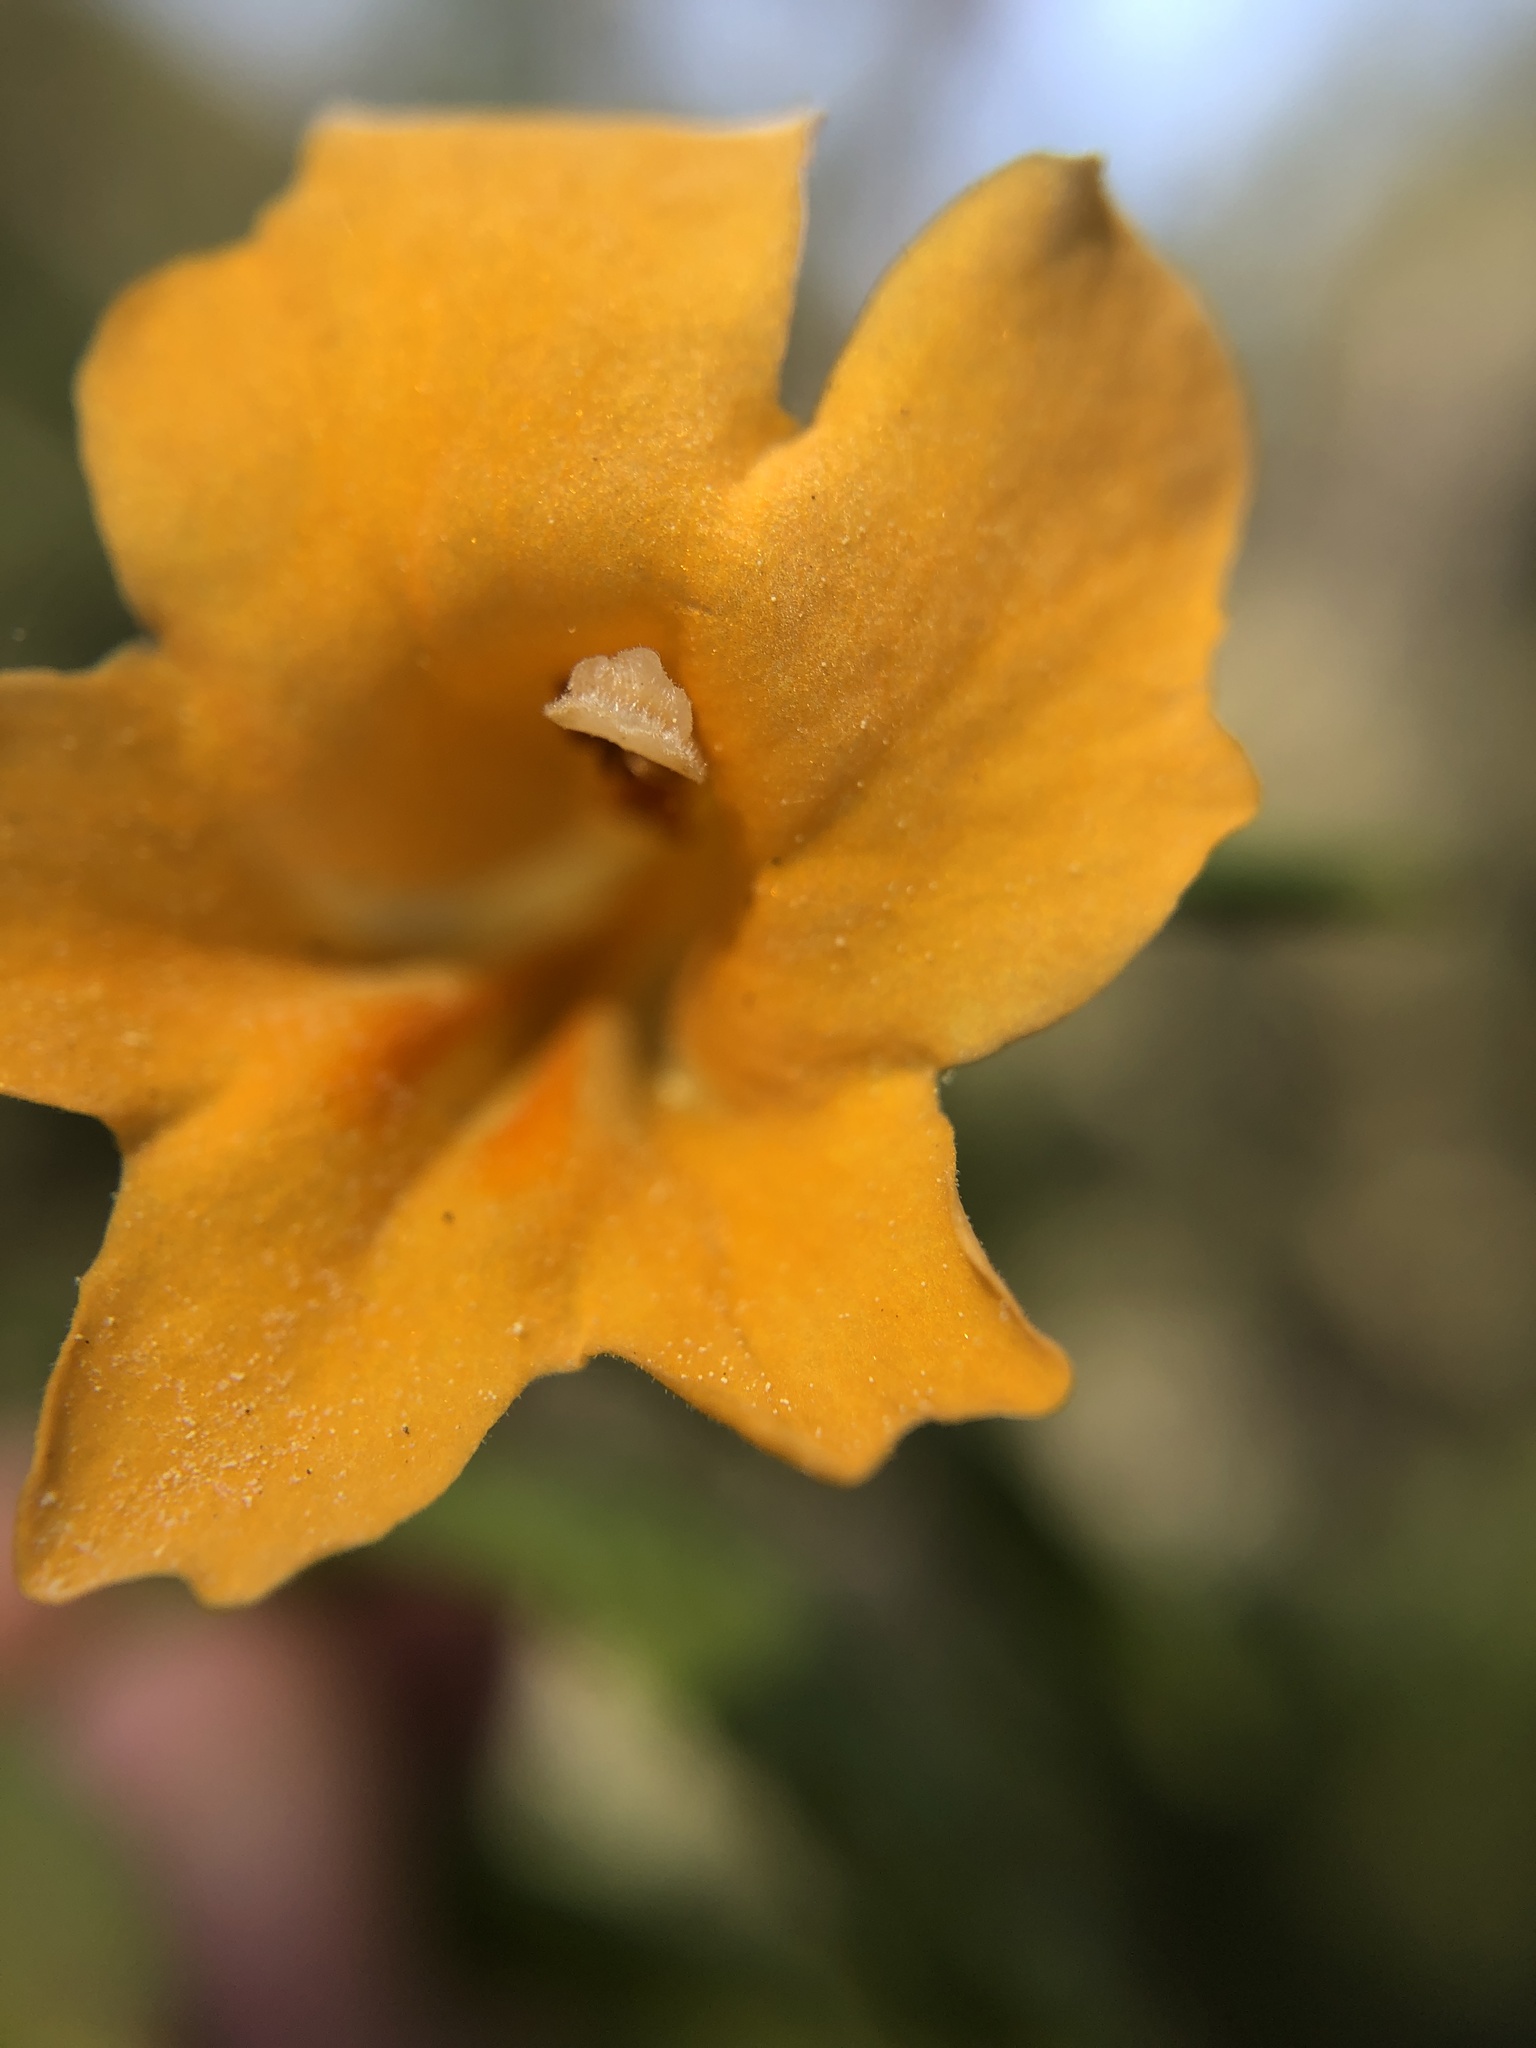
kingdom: Plantae
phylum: Tracheophyta
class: Magnoliopsida
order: Lamiales
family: Phrymaceae
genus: Diplacus
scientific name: Diplacus aurantiacus
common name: Bush monkey-flower
